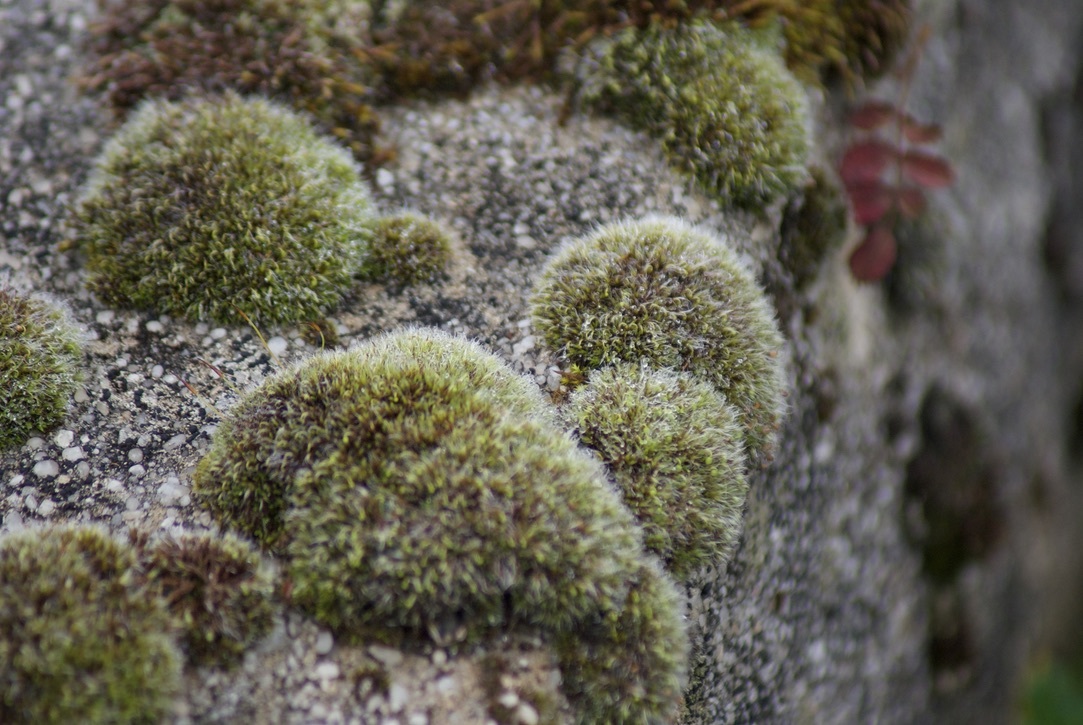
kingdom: Plantae
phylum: Bryophyta
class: Bryopsida
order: Grimmiales
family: Grimmiaceae
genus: Grimmia
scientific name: Grimmia pulvinata
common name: Grey-cushioned grimmia
